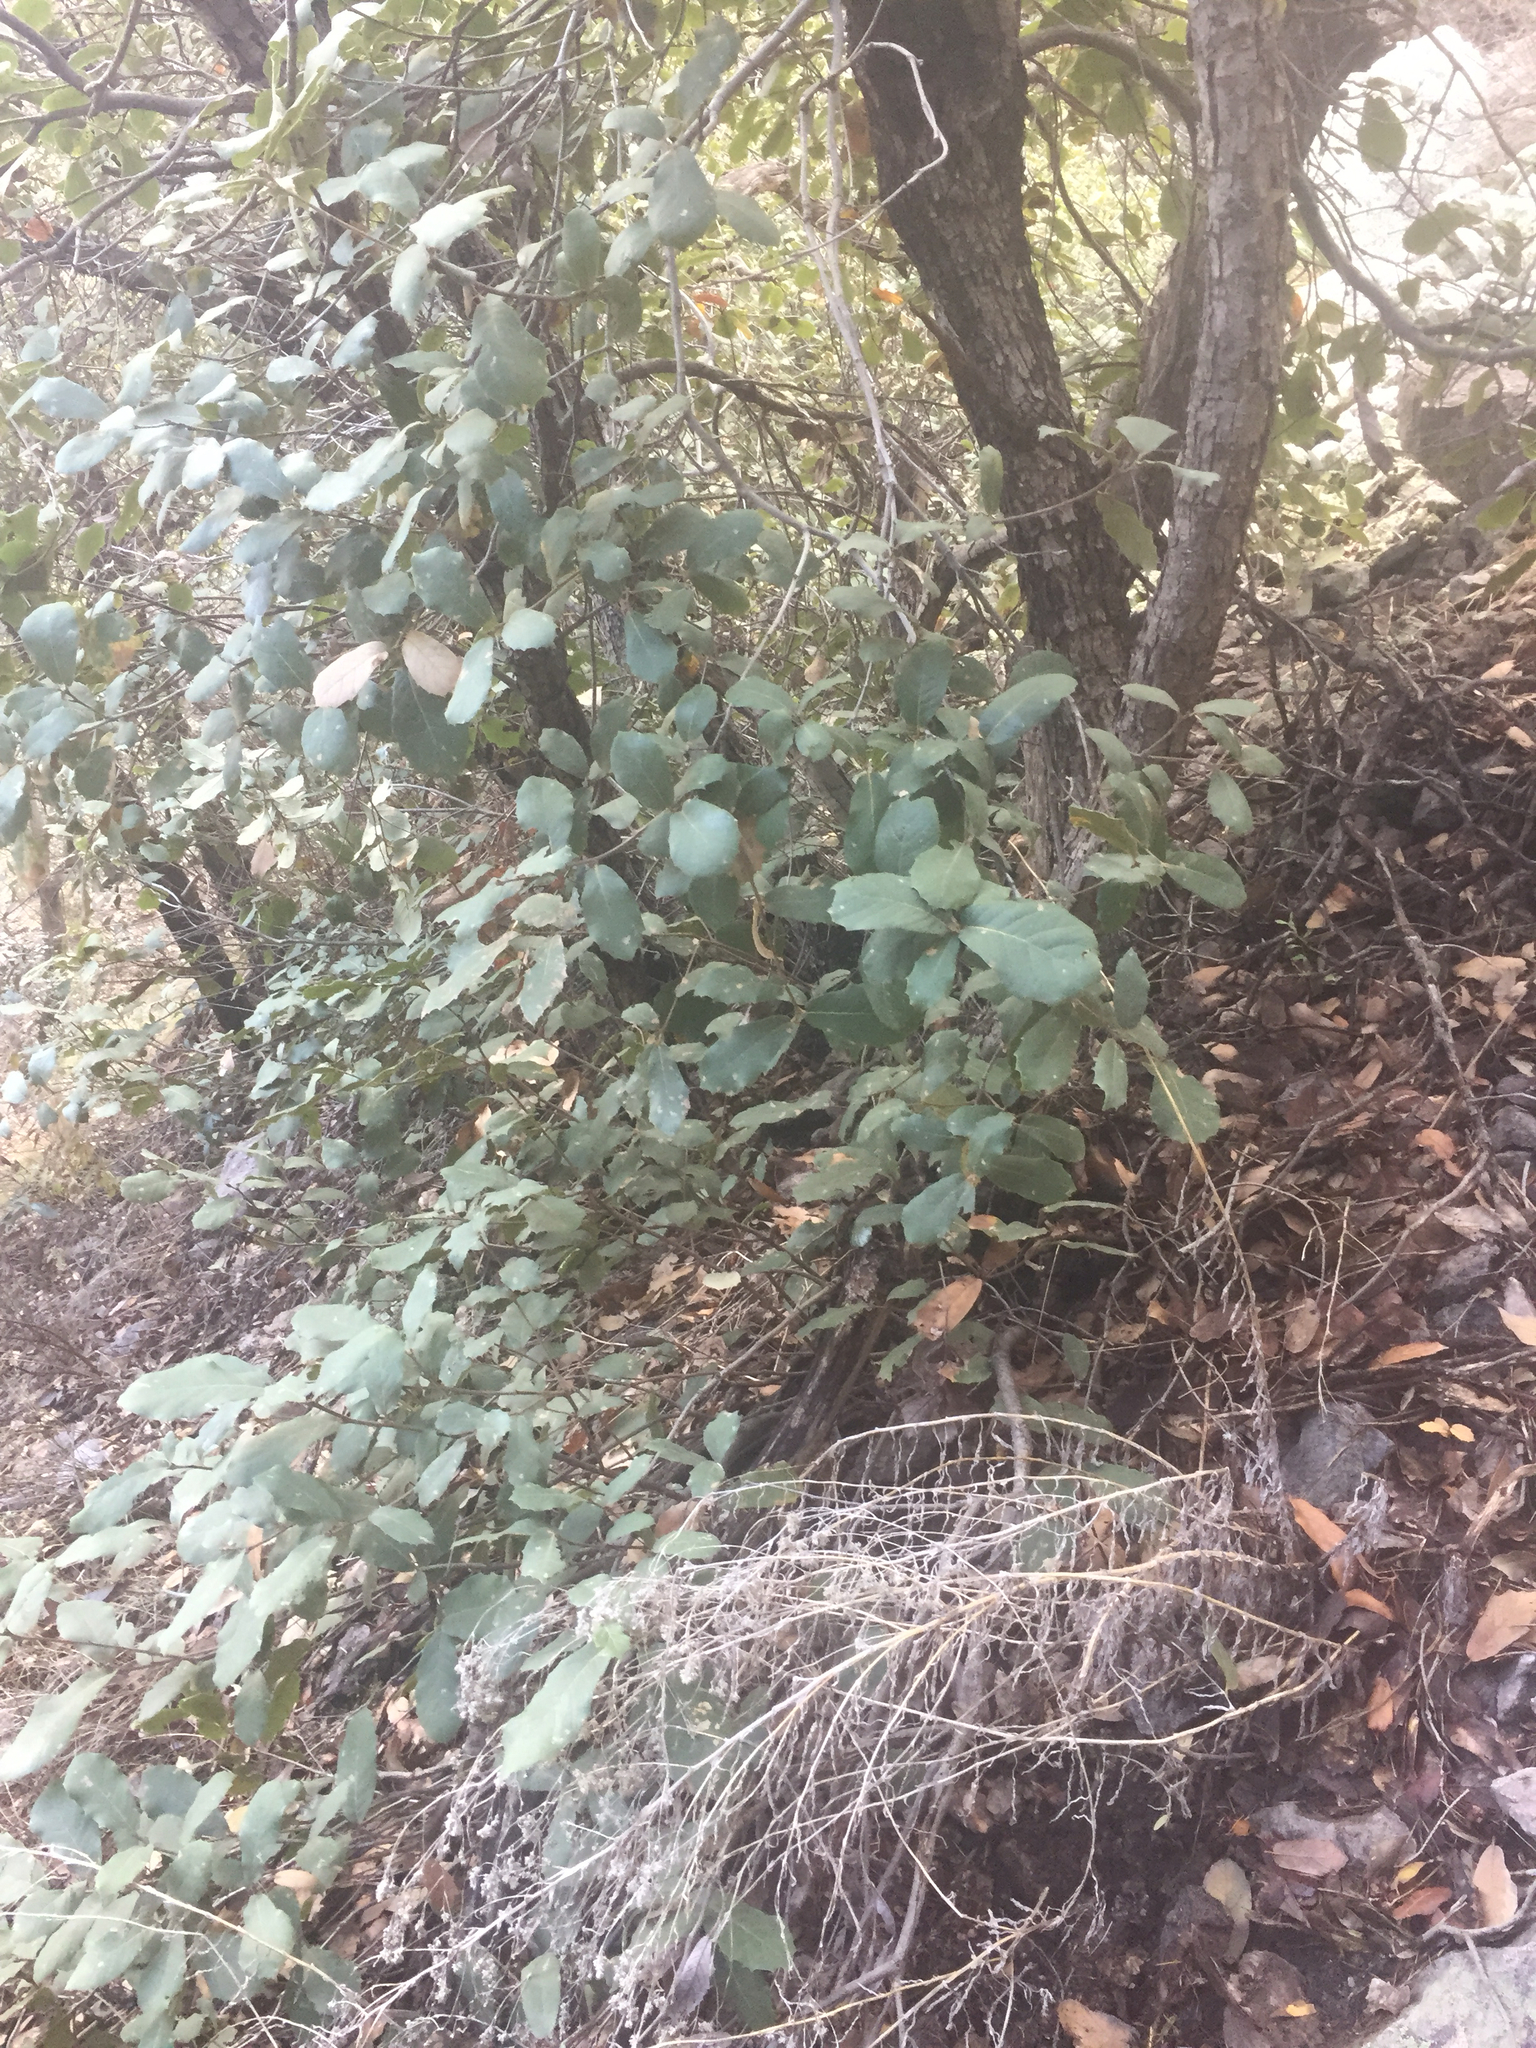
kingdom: Plantae
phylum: Tracheophyta
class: Magnoliopsida
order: Fagales
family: Fagaceae
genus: Quercus
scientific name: Quercus arizonica
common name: Arizona white oak
